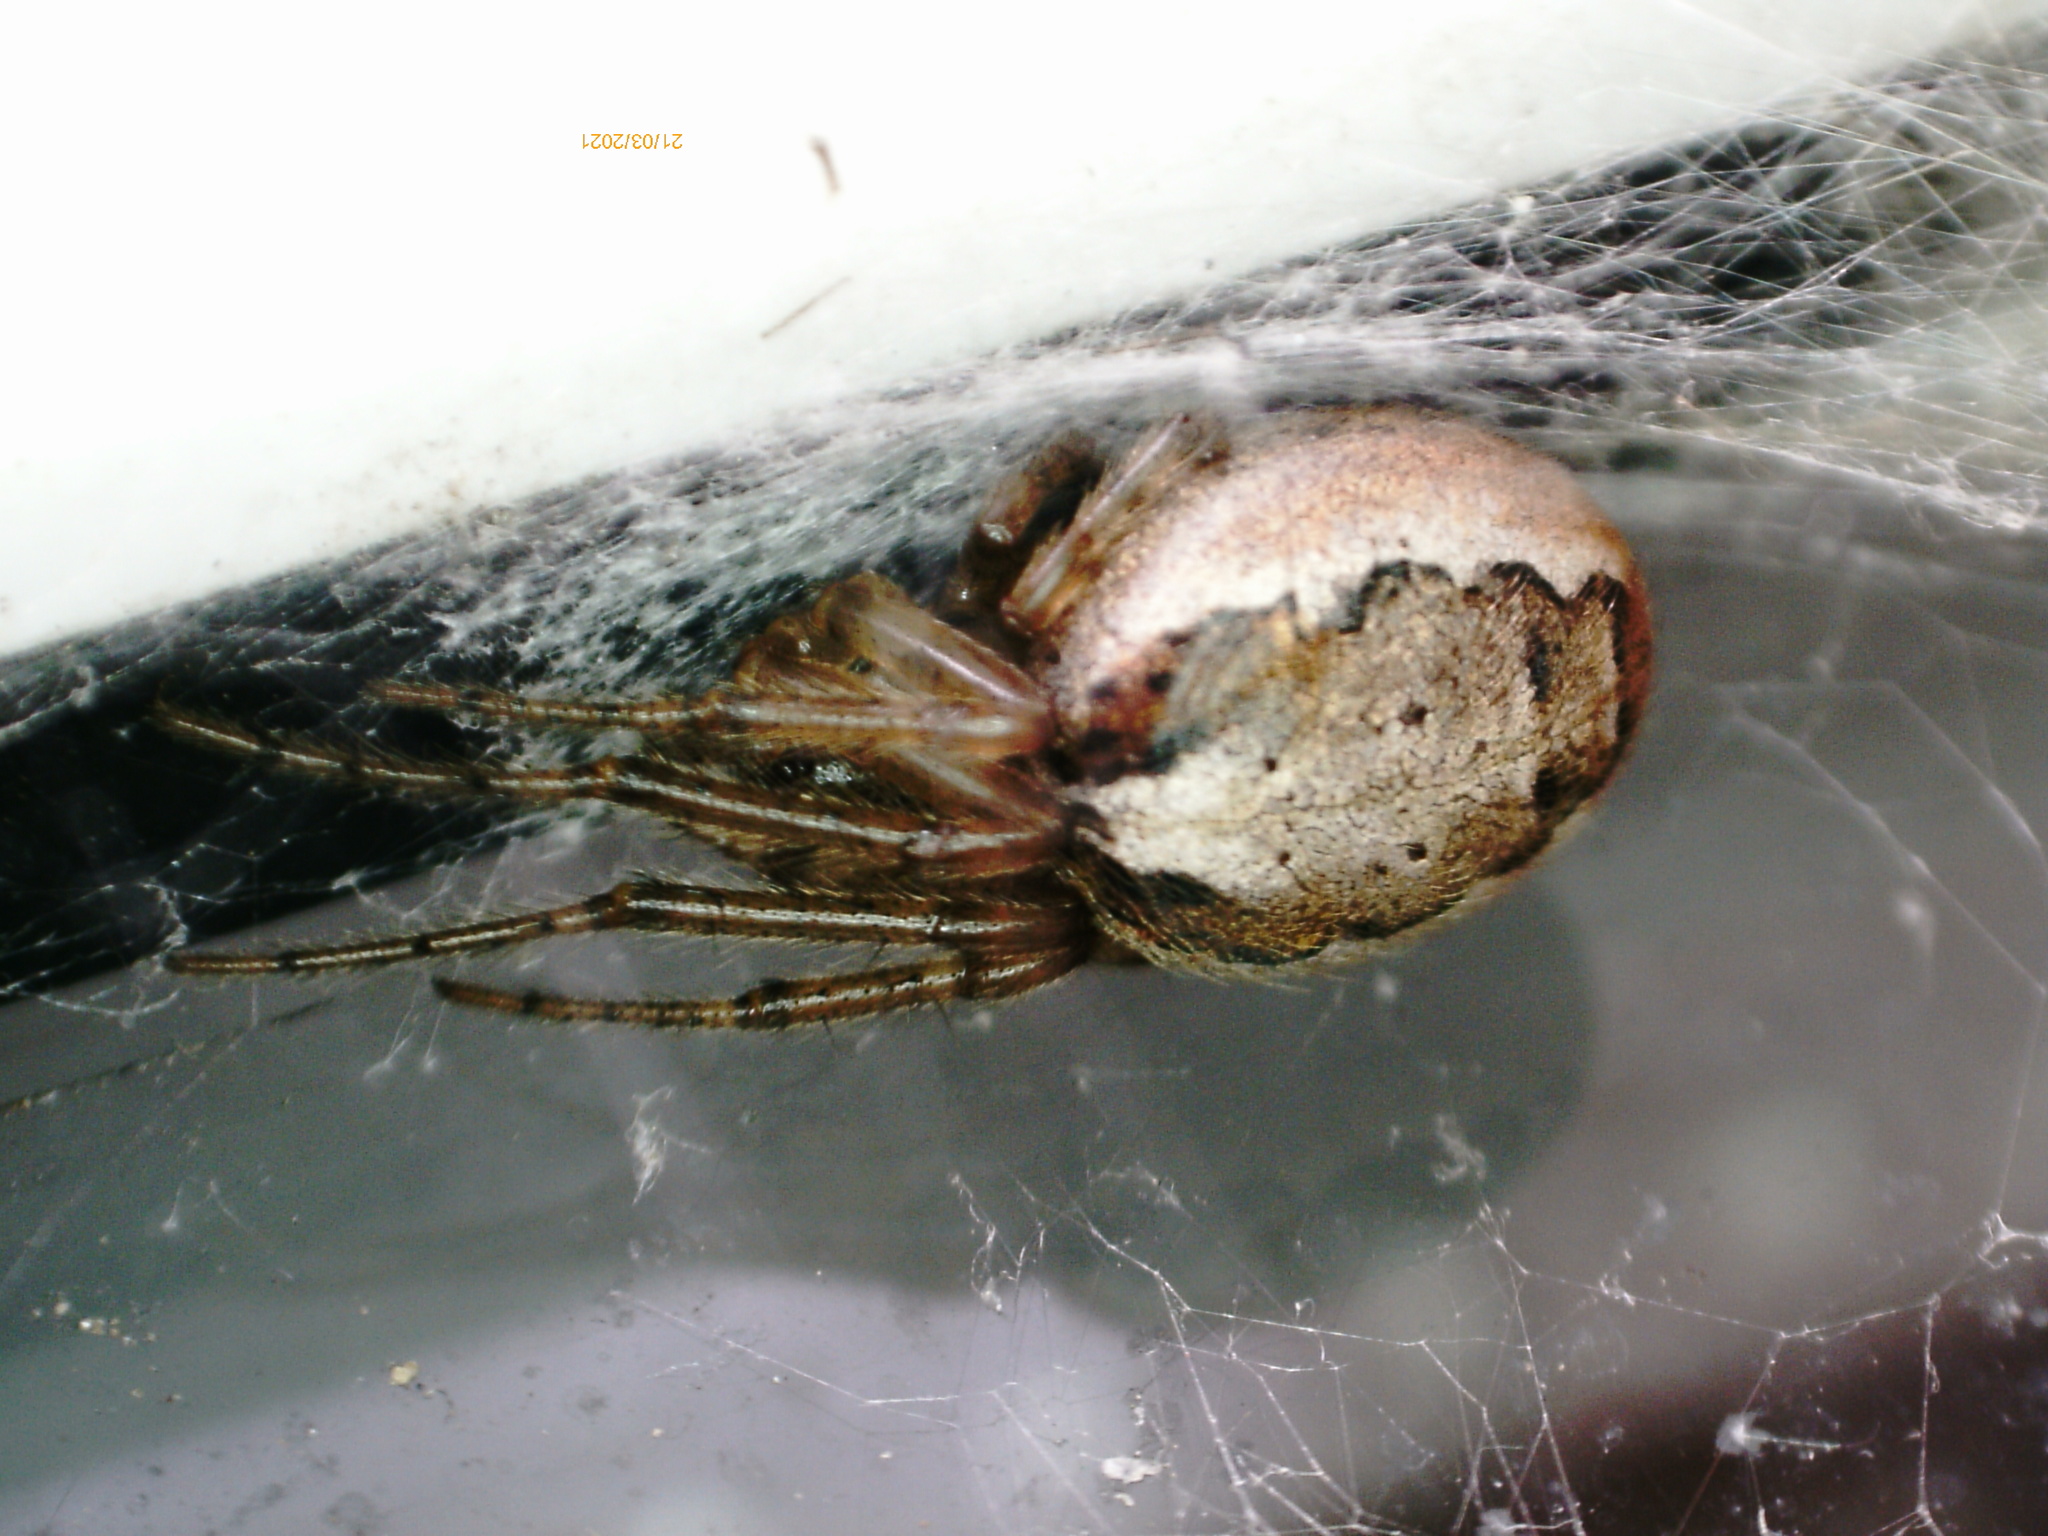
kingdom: Animalia
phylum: Arthropoda
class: Arachnida
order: Araneae
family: Araneidae
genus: Zygiella
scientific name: Zygiella x-notata
